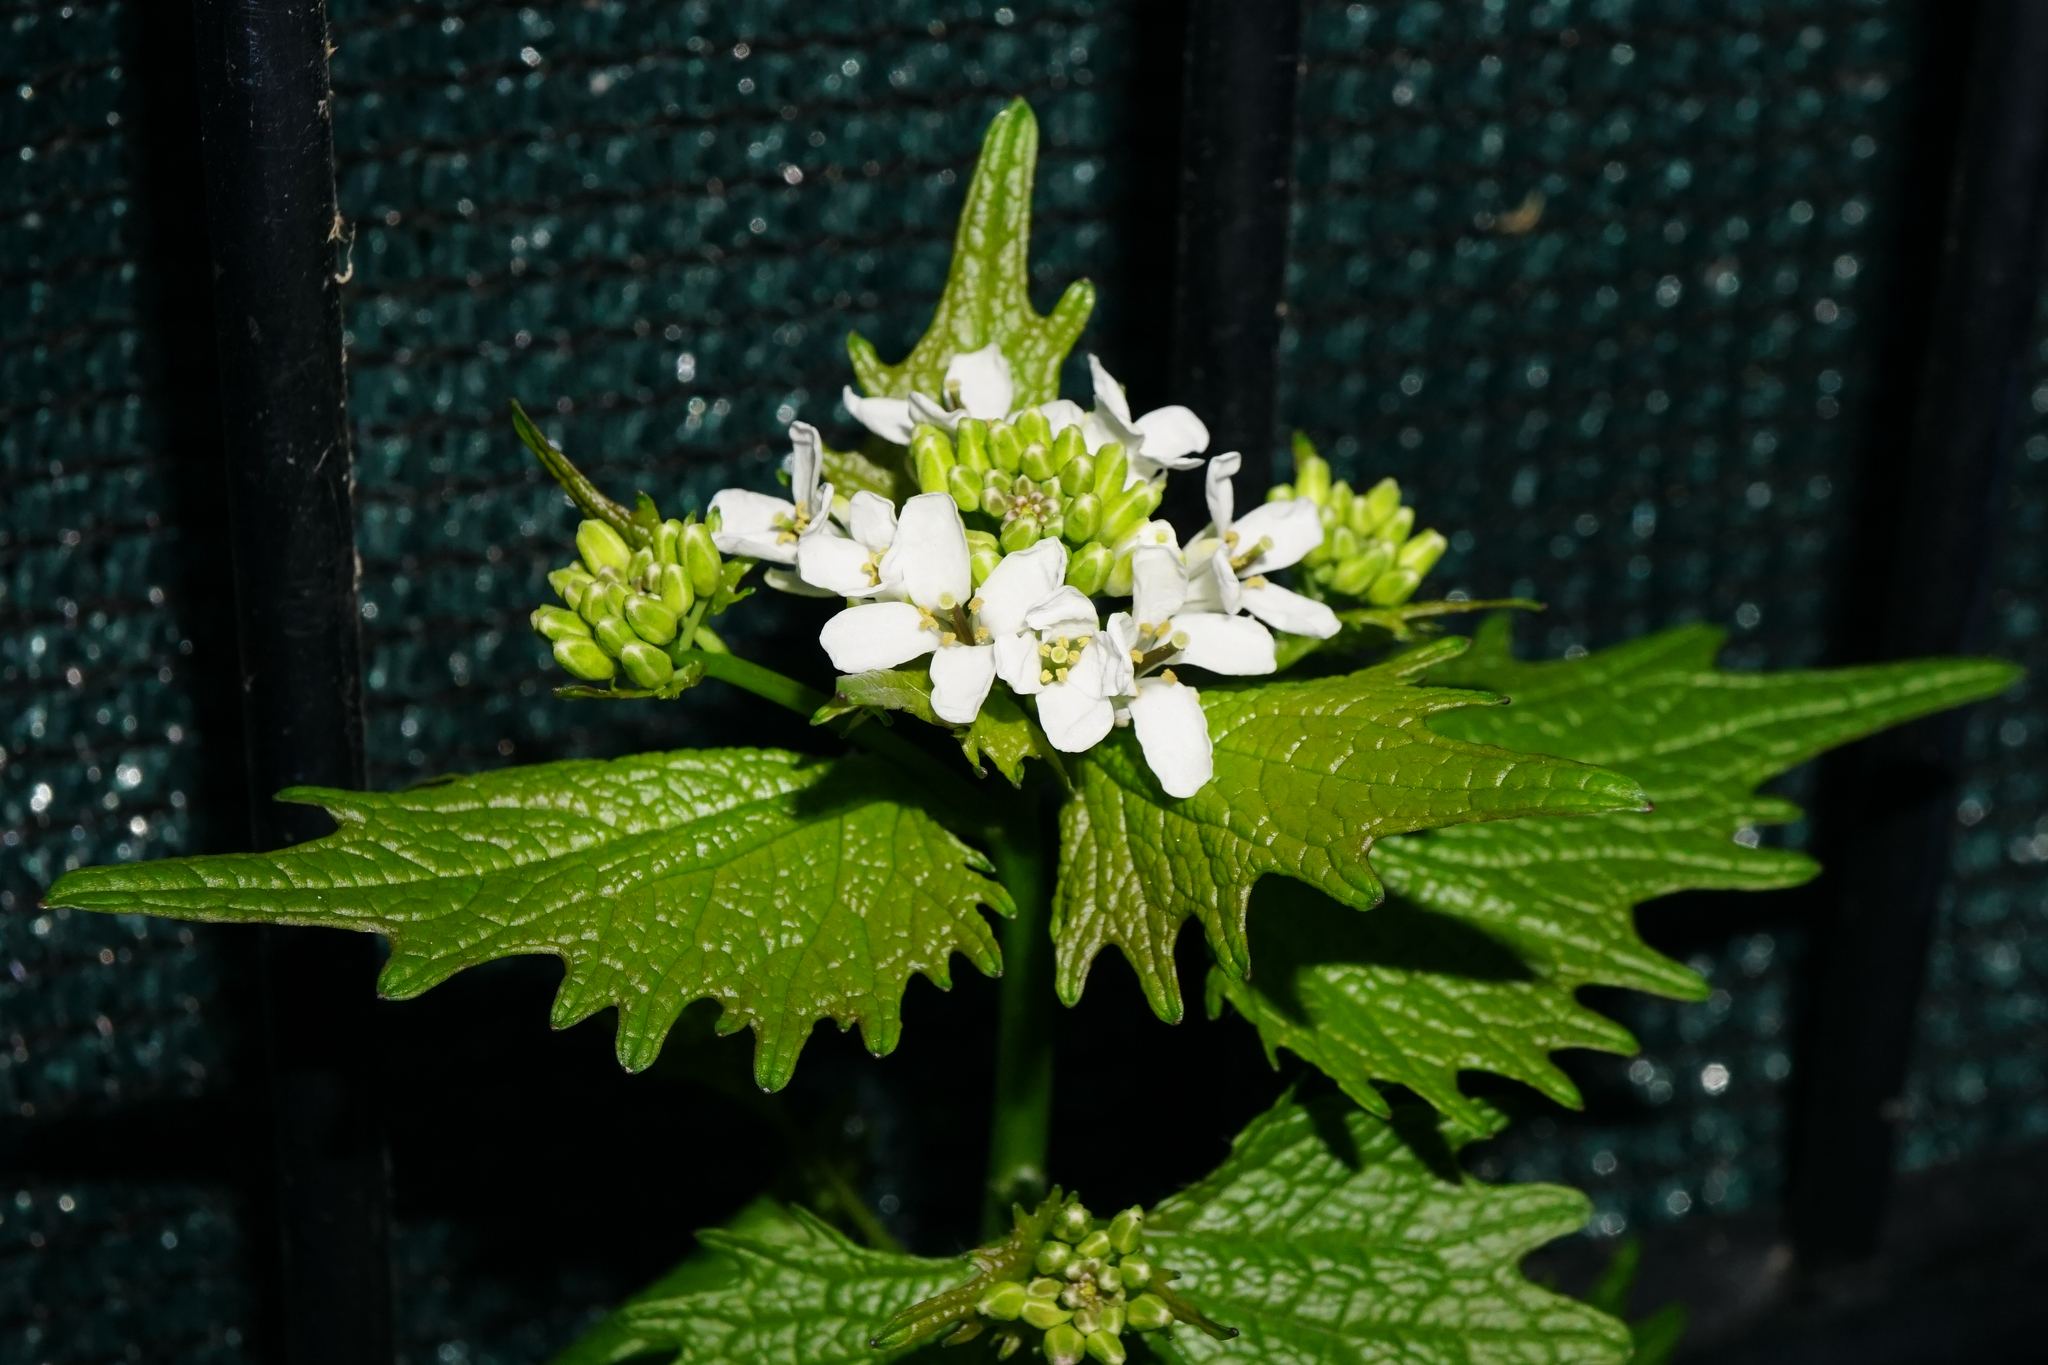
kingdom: Plantae
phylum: Tracheophyta
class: Magnoliopsida
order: Brassicales
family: Brassicaceae
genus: Alliaria
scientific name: Alliaria petiolata
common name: Garlic mustard
